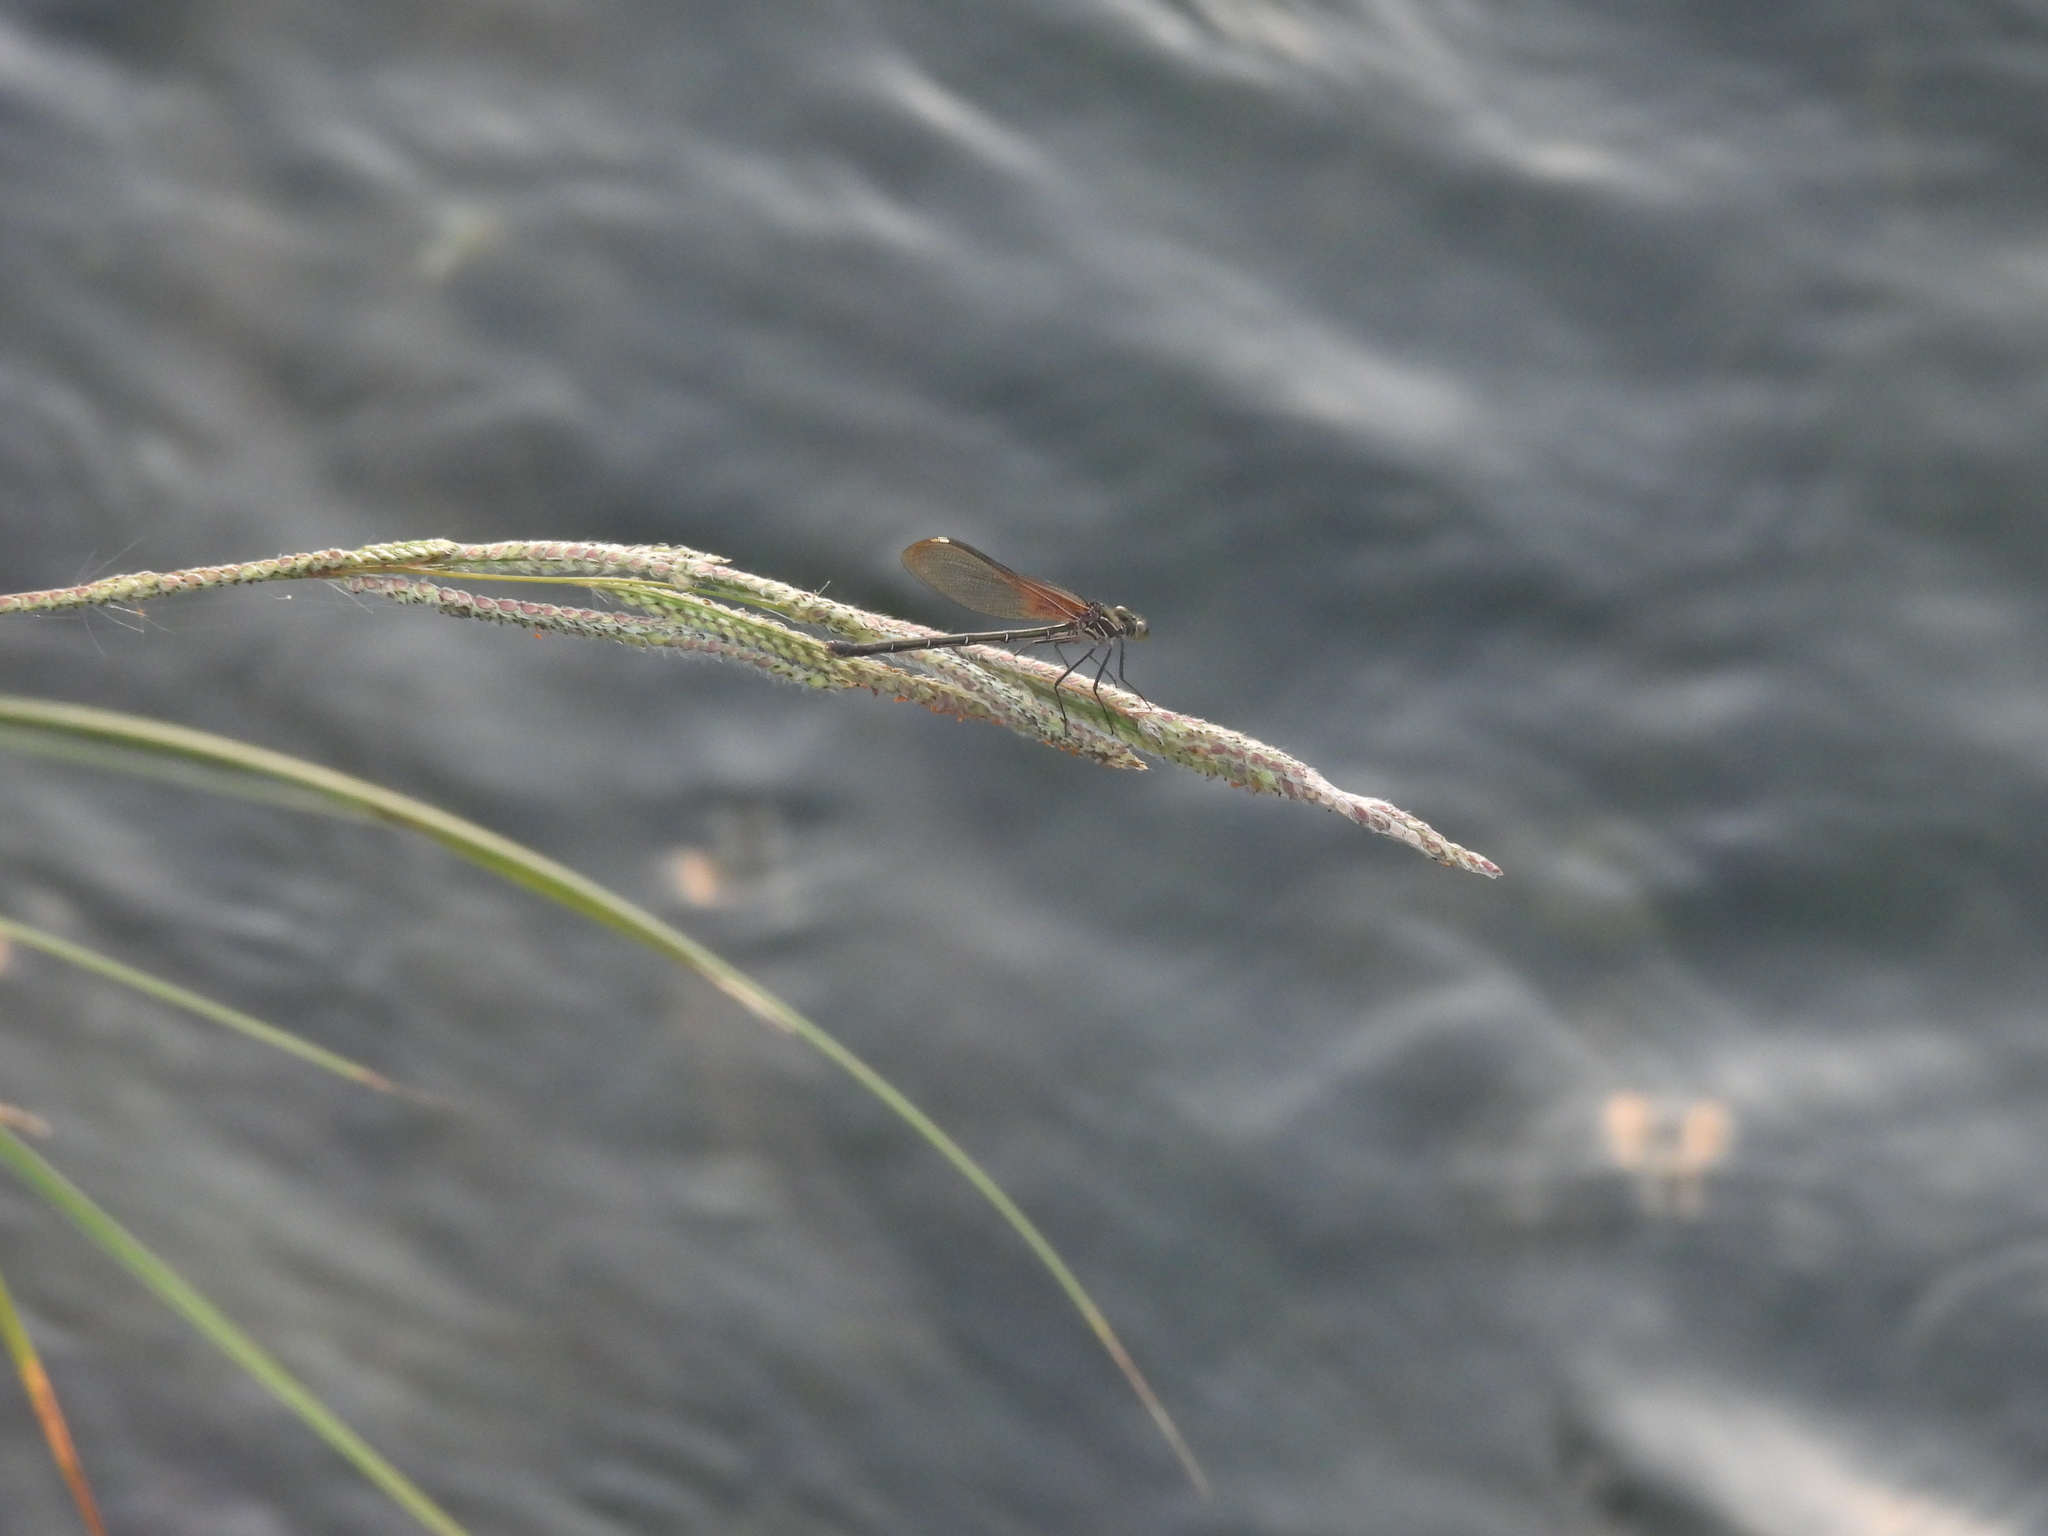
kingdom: Animalia
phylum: Arthropoda
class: Insecta
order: Odonata
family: Calopterygidae
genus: Hetaerina
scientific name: Hetaerina americana
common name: American rubyspot
